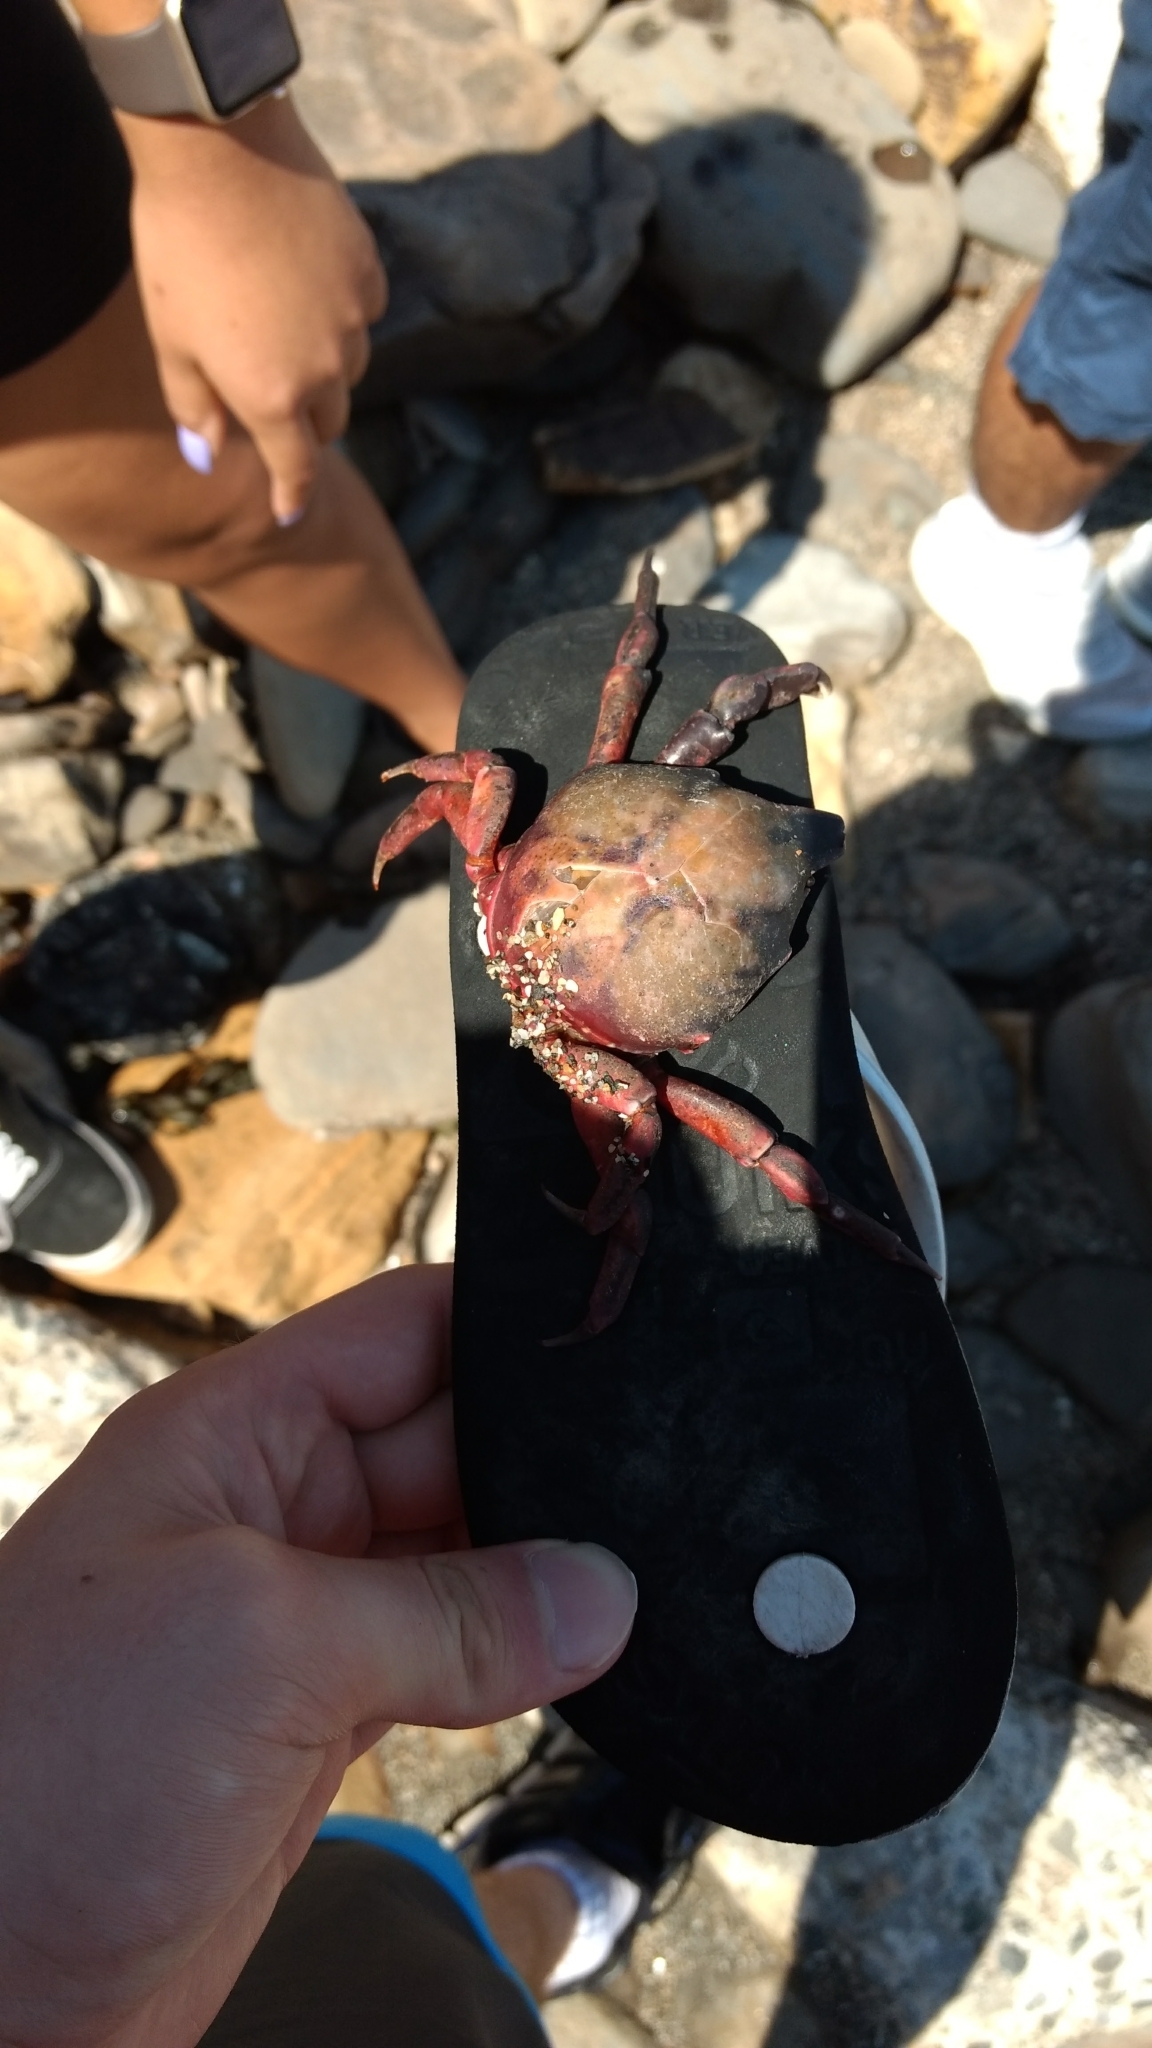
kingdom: Animalia
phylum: Arthropoda
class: Malacostraca
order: Decapoda
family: Epialtidae
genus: Taliepus
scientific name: Taliepus nuttallii
